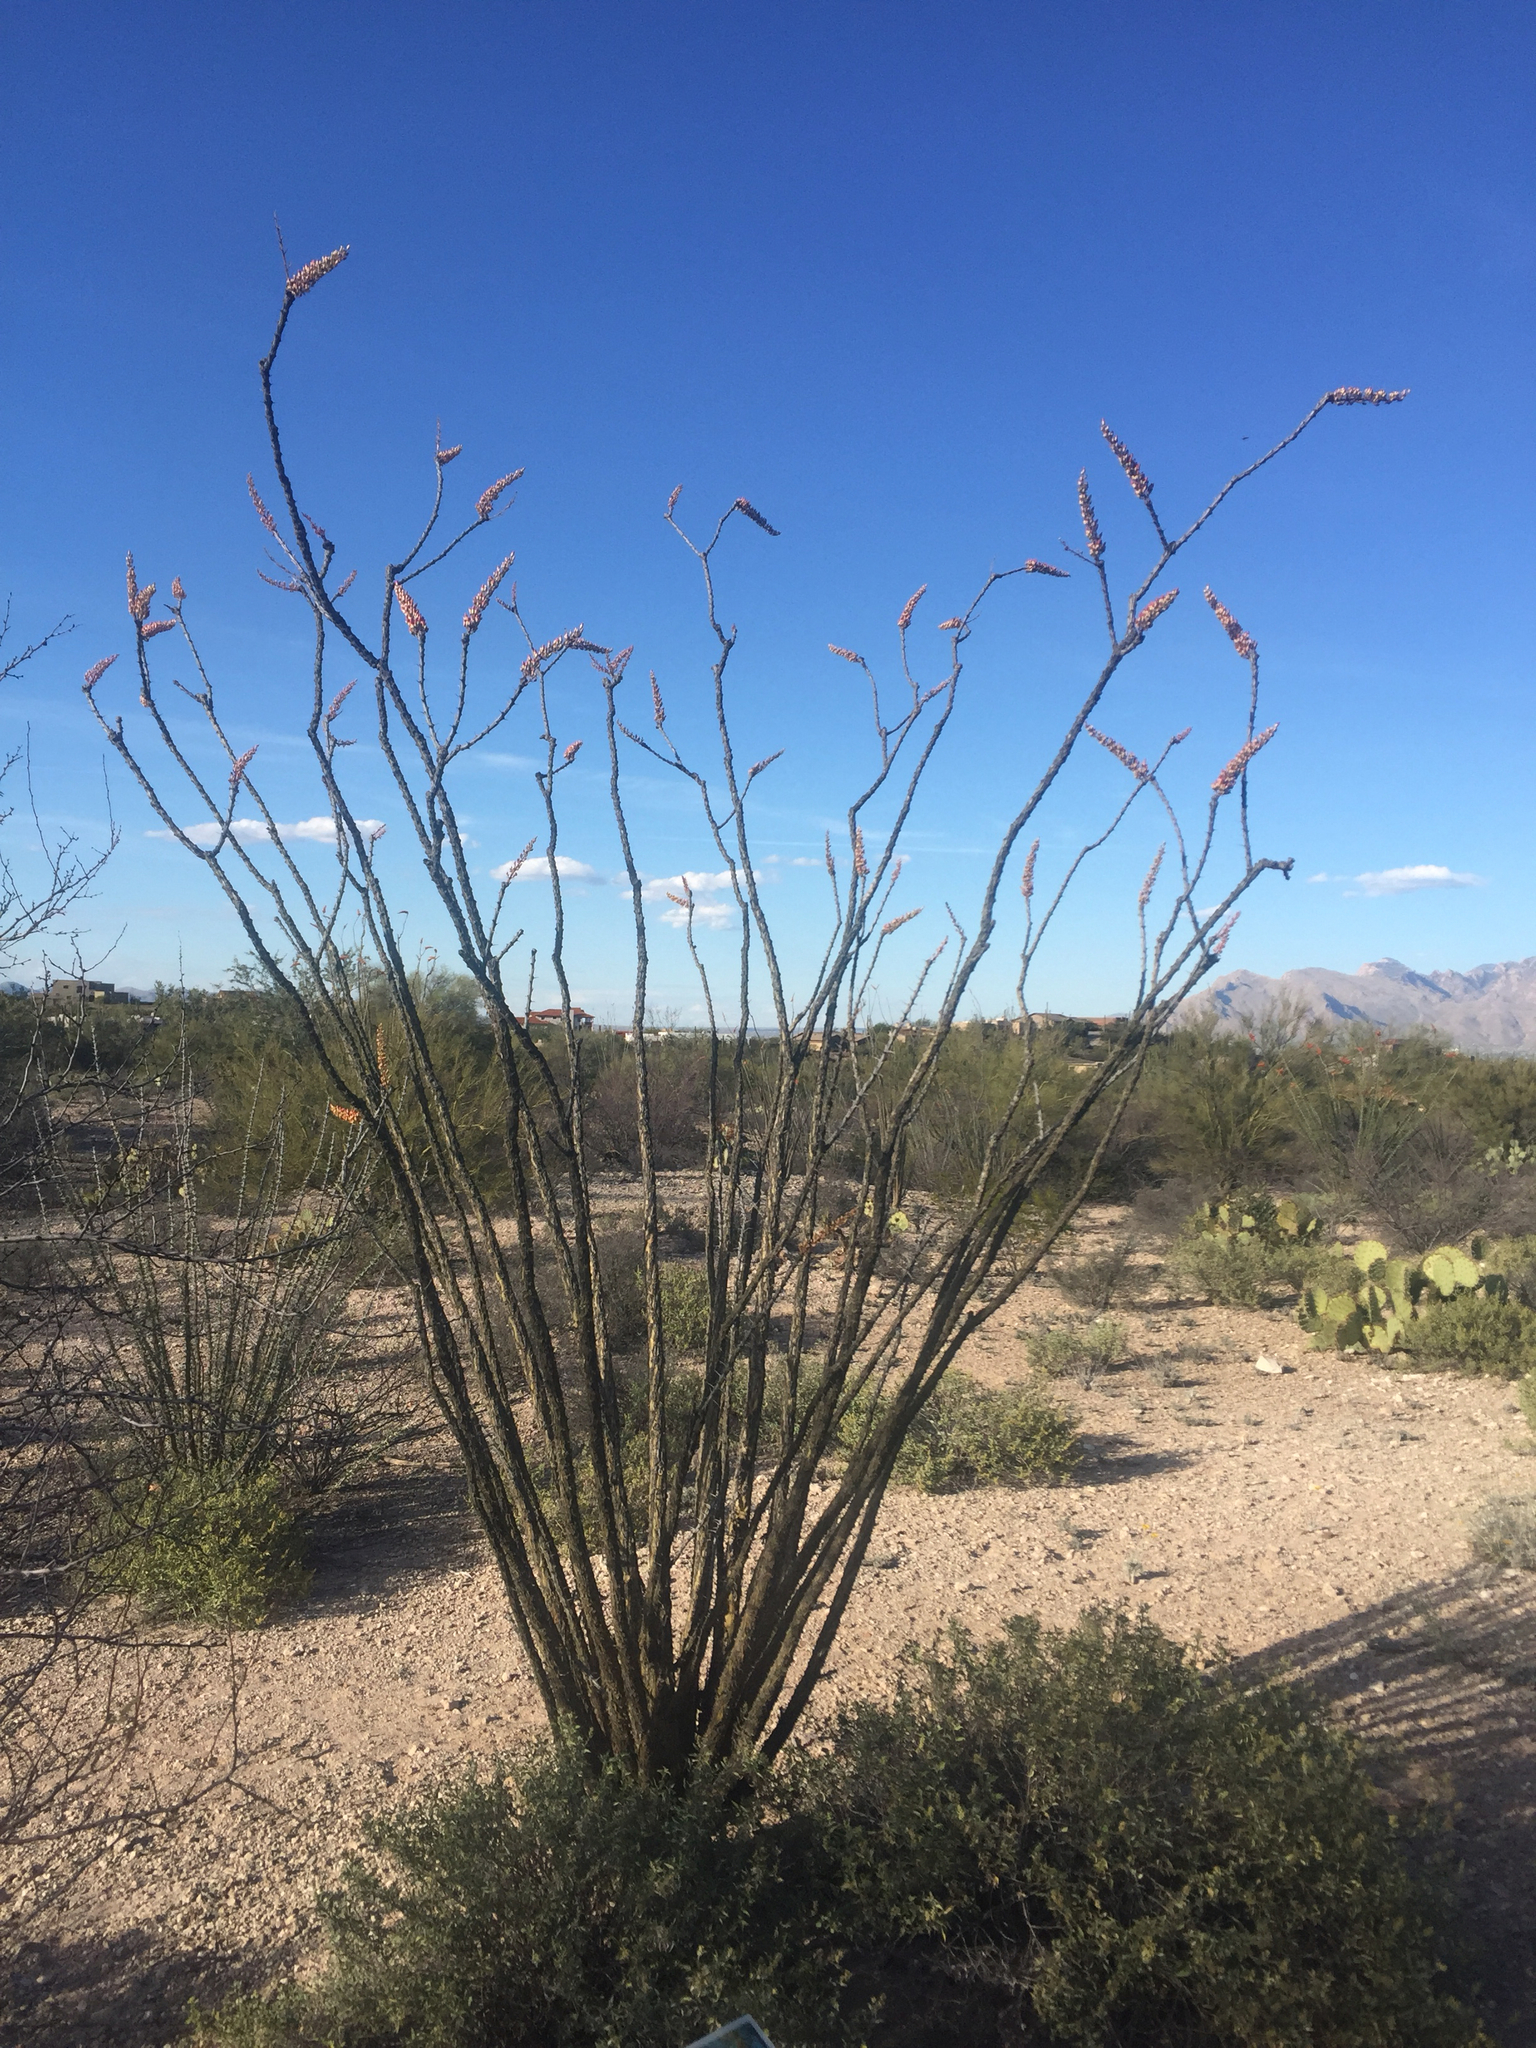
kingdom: Plantae
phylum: Tracheophyta
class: Magnoliopsida
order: Ericales
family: Fouquieriaceae
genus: Fouquieria
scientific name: Fouquieria splendens
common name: Vine-cactus
